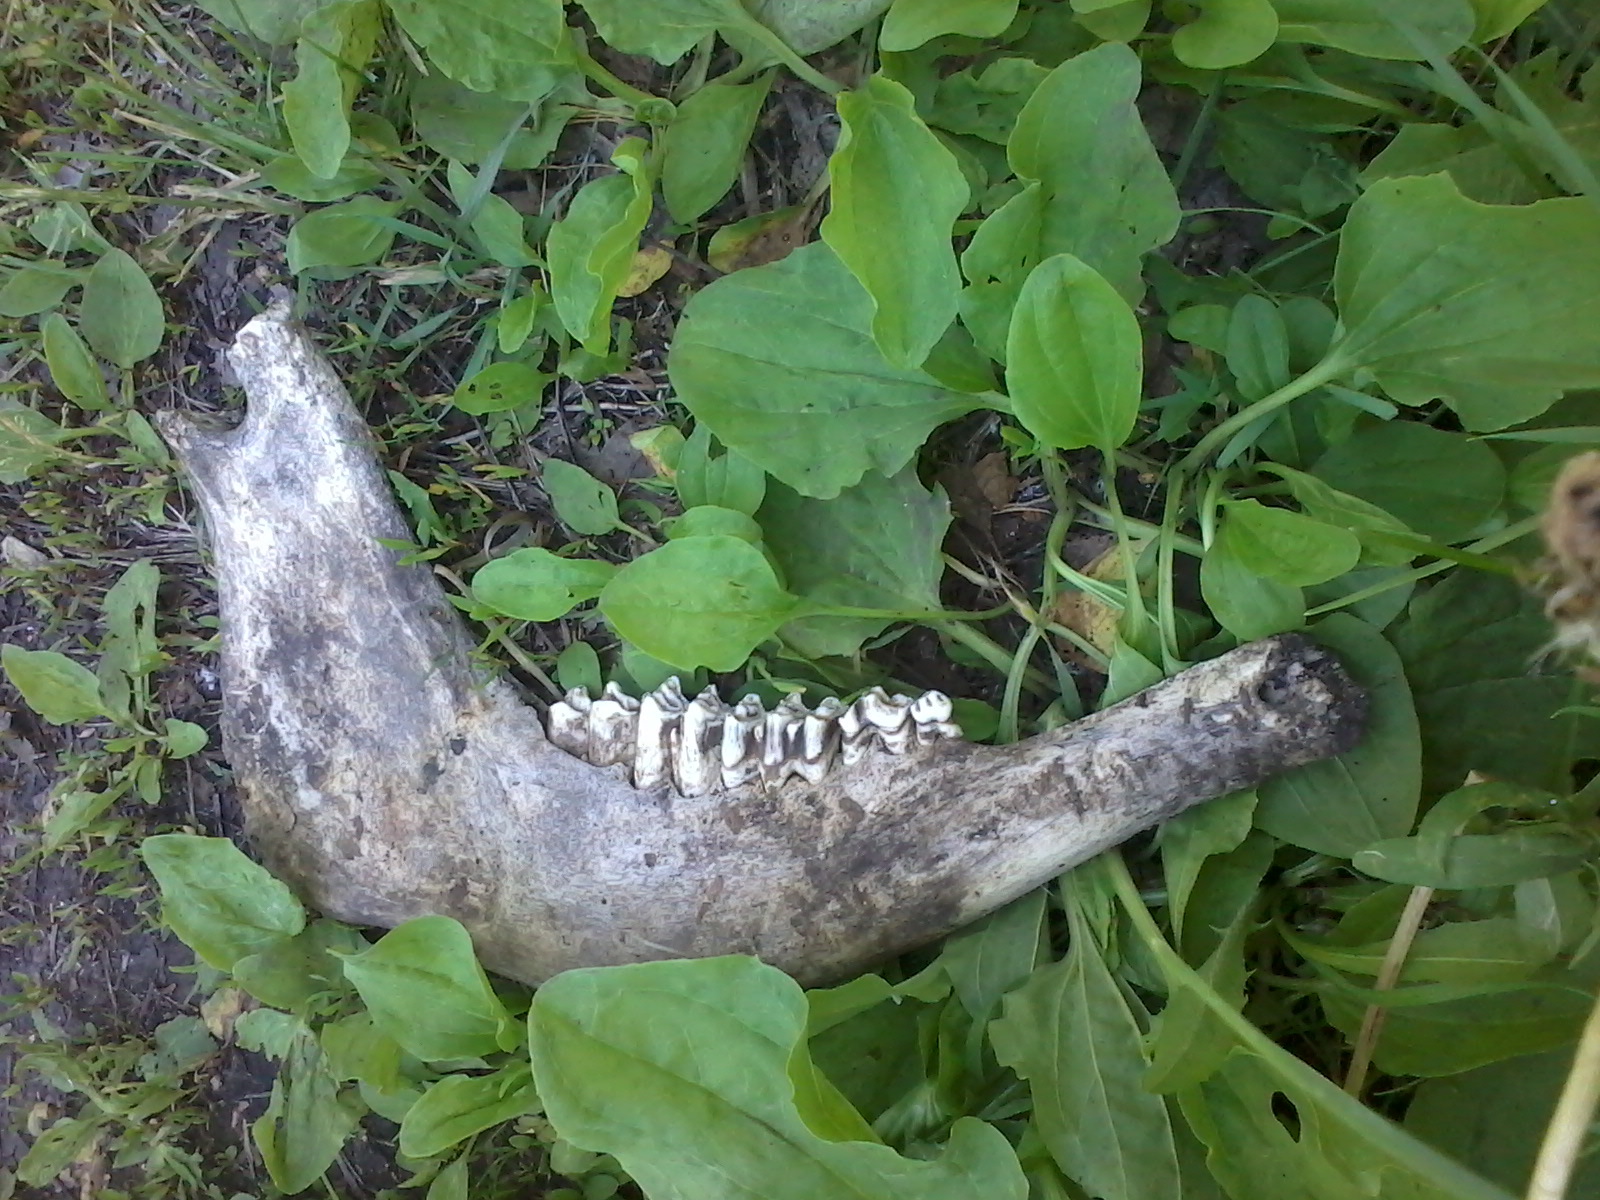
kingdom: Animalia
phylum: Chordata
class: Mammalia
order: Artiodactyla
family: Suidae
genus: Sus
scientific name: Sus scrofa
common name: Wild boar
